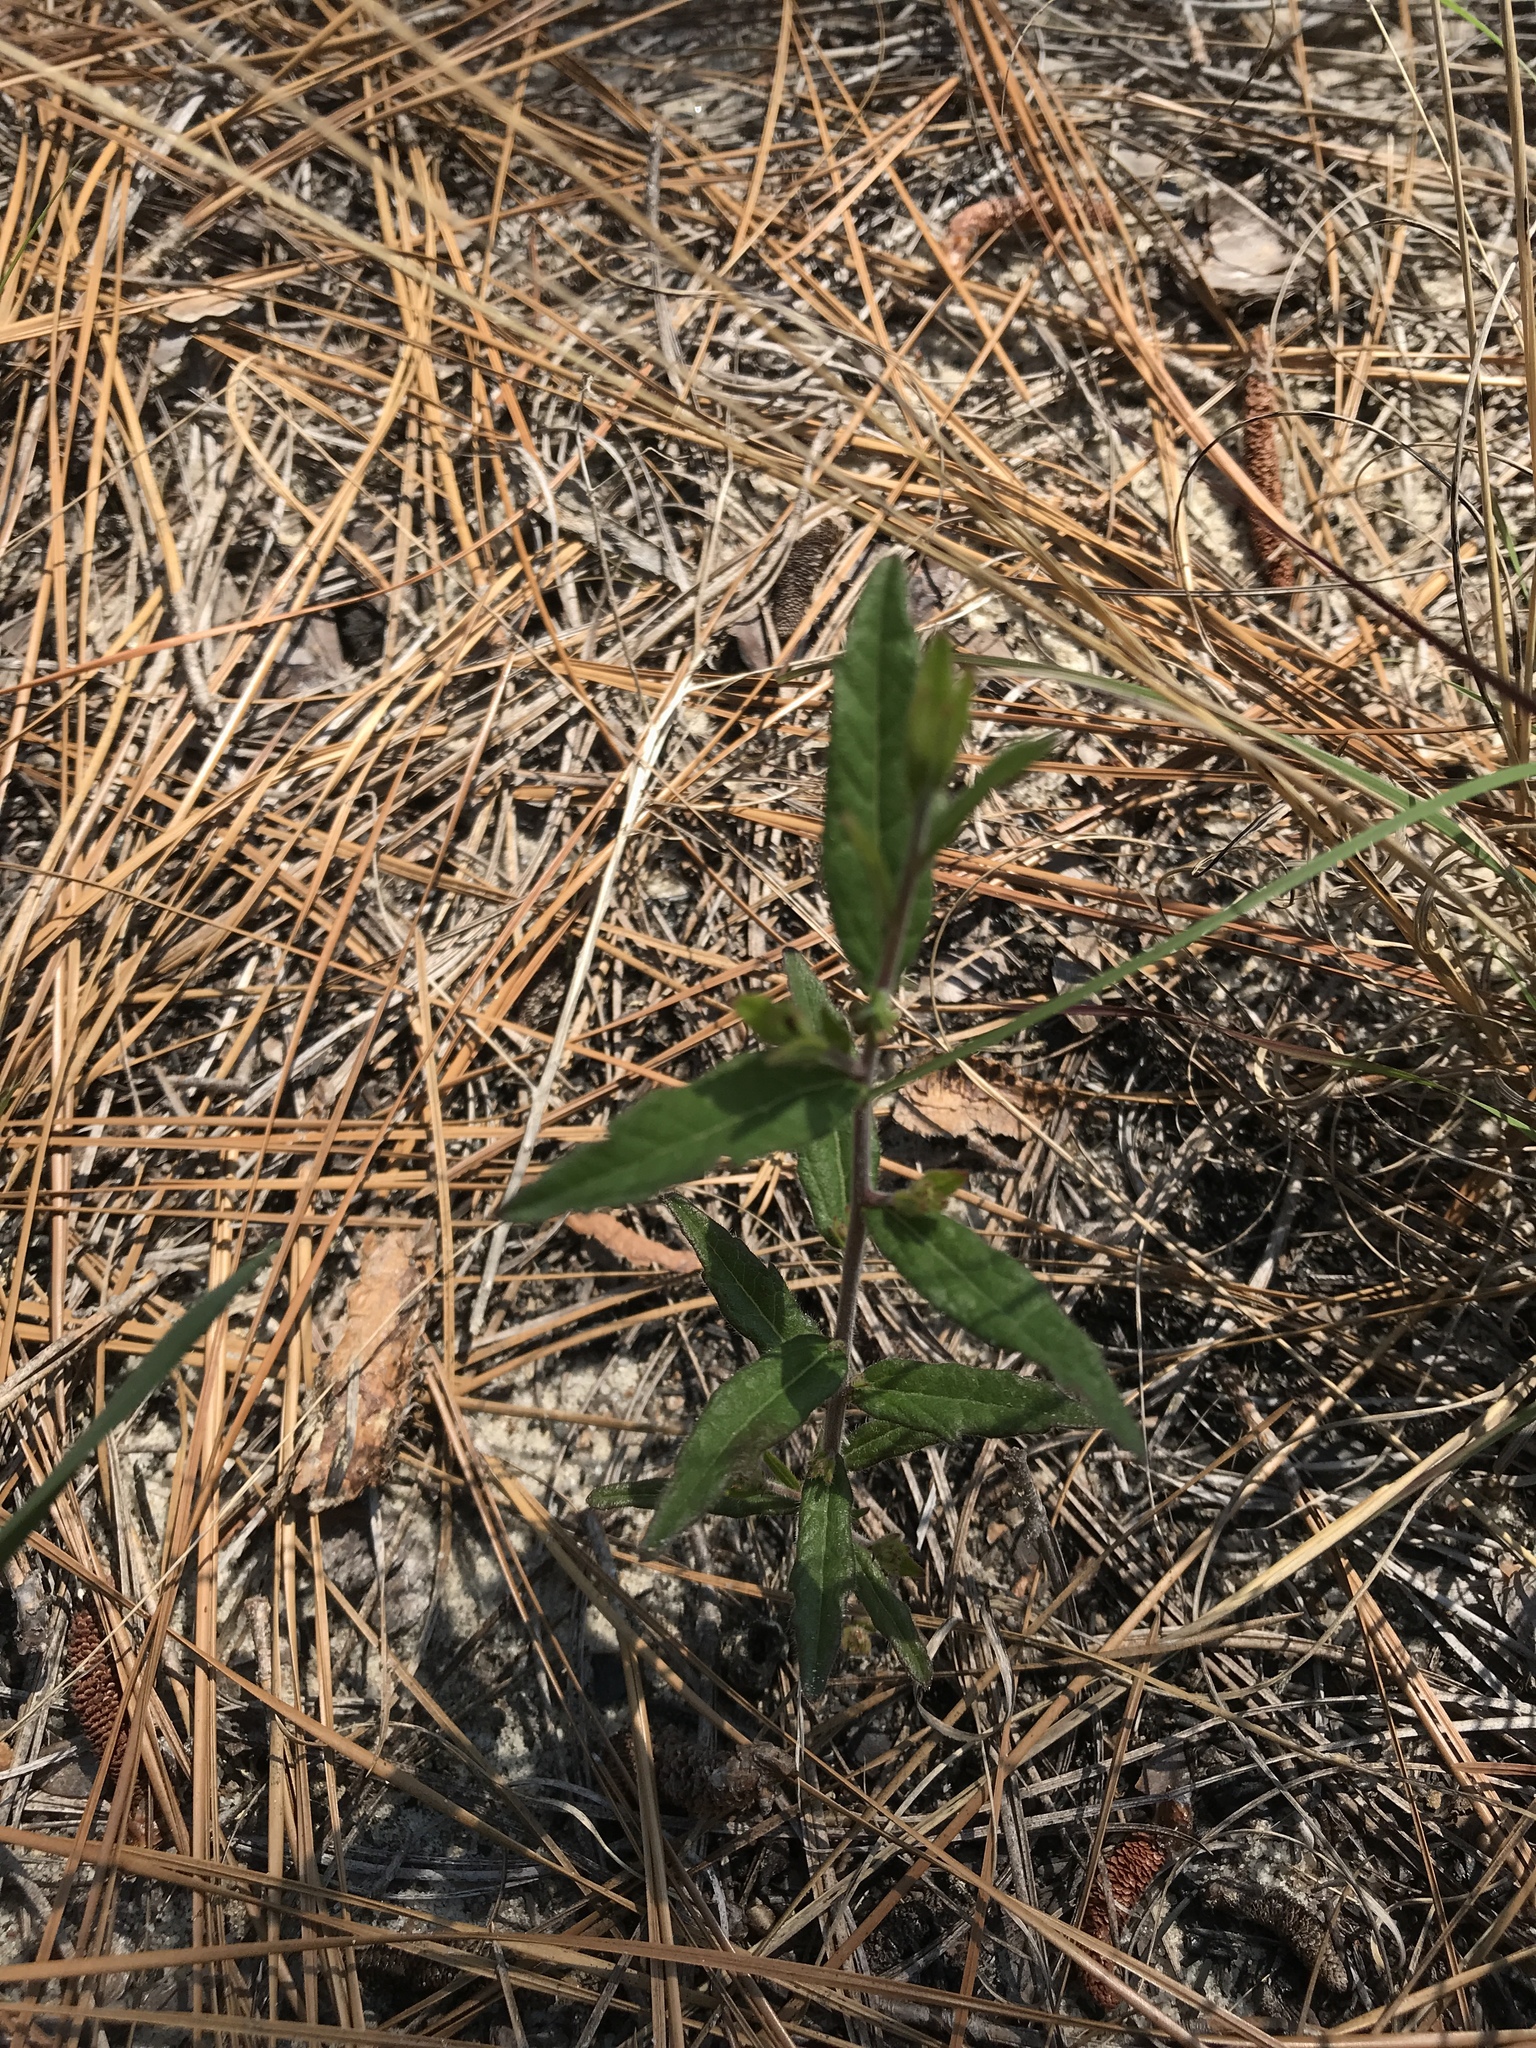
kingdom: Plantae
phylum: Tracheophyta
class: Magnoliopsida
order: Malpighiales
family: Euphorbiaceae
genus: Tragia
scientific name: Tragia urens
